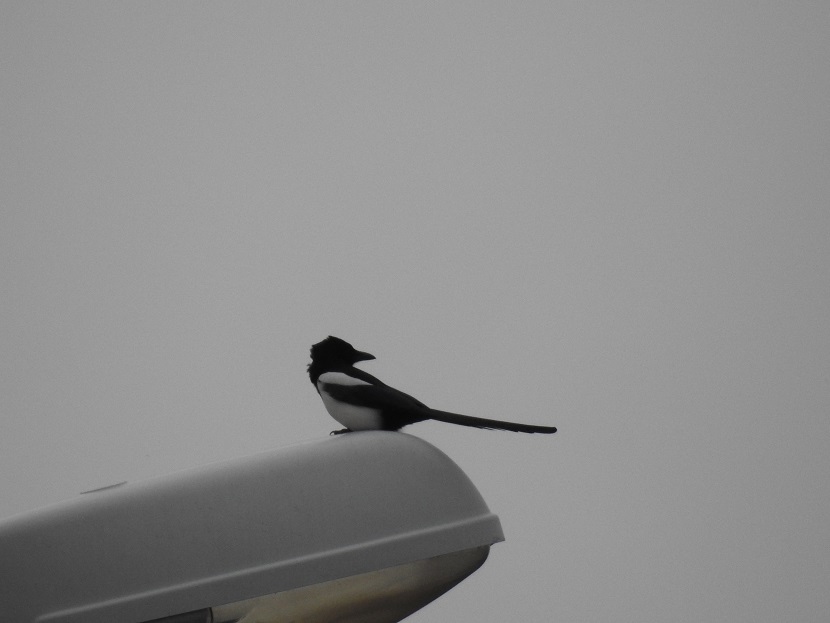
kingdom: Animalia
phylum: Chordata
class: Aves
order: Passeriformes
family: Corvidae
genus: Pica
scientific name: Pica pica
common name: Eurasian magpie
